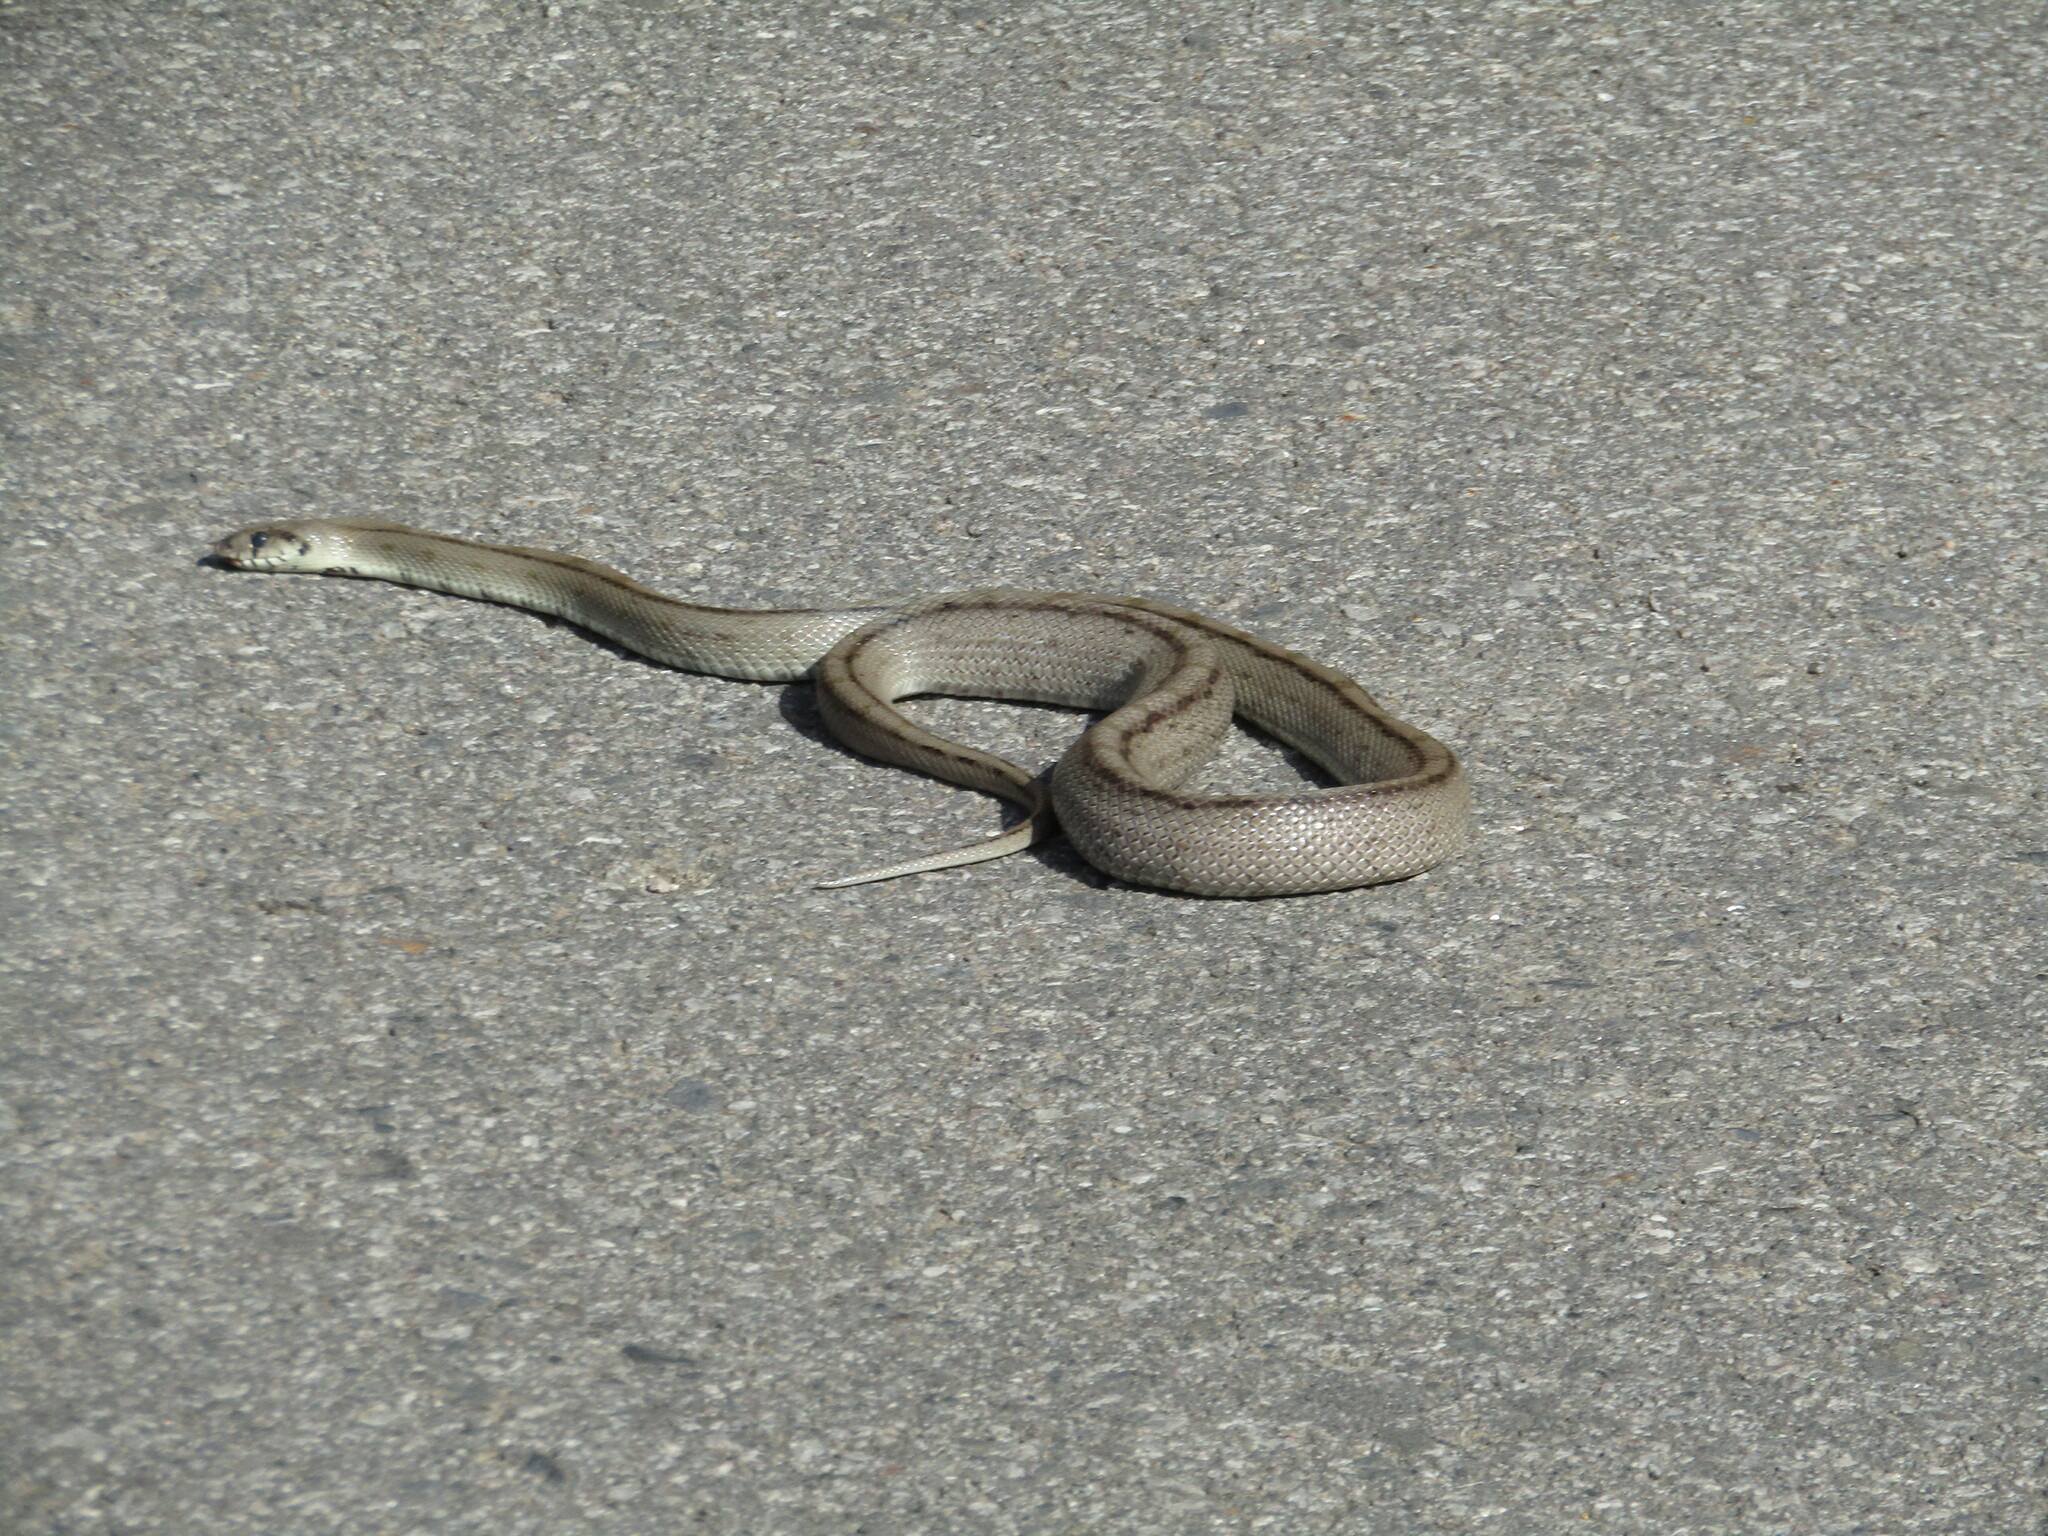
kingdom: Animalia
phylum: Chordata
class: Squamata
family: Colubridae
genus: Zamenis
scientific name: Zamenis scalaris
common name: Ladder snakes
